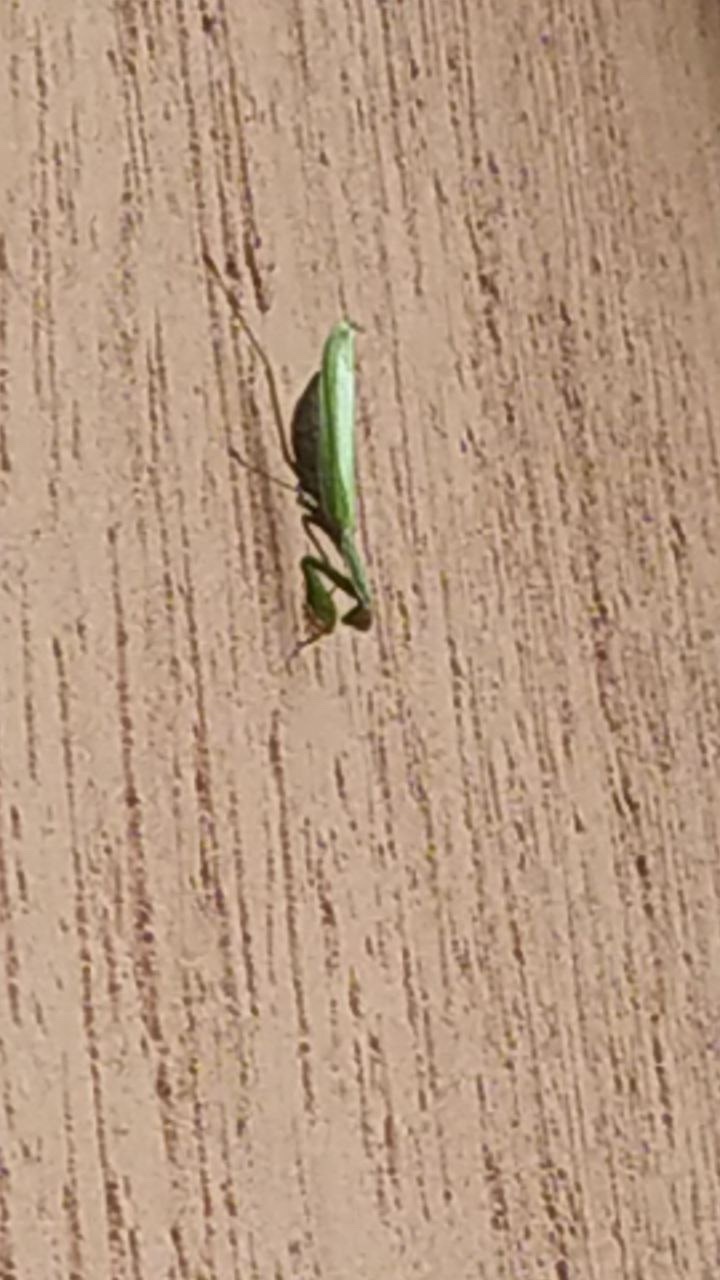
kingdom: Animalia
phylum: Arthropoda
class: Insecta
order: Mantodea
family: Mantidae
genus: Mantis
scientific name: Mantis religiosa
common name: Praying mantis
